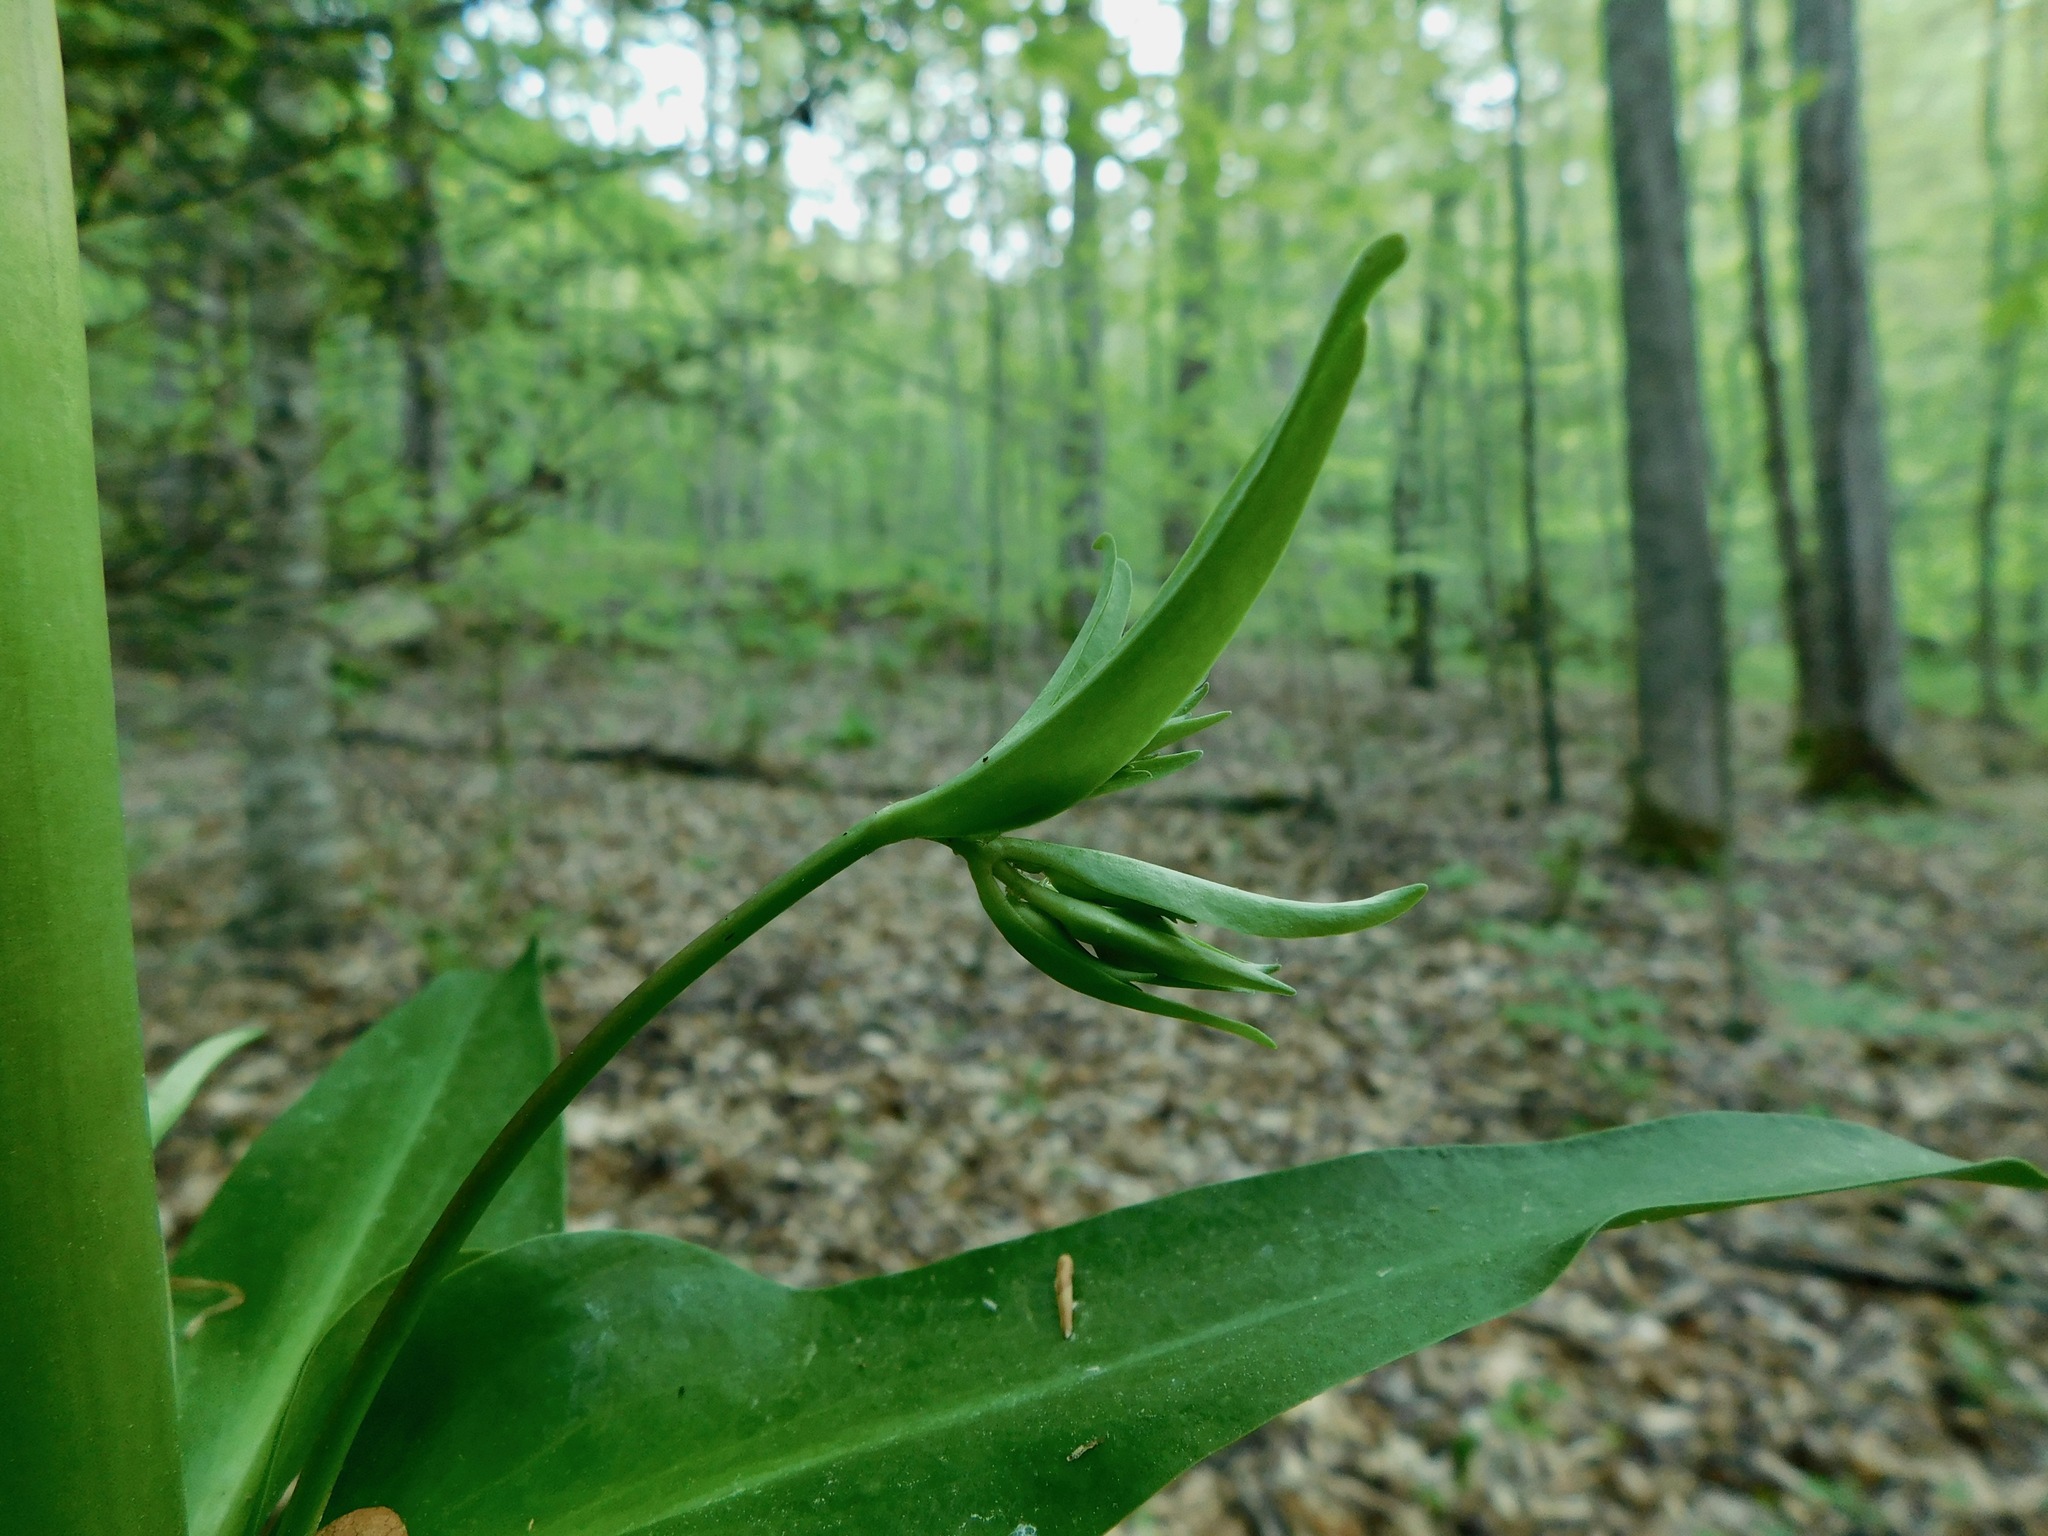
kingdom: Plantae
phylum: Tracheophyta
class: Magnoliopsida
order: Gentianales
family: Gentianaceae
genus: Frasera
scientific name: Frasera caroliniensis
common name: American columbo
